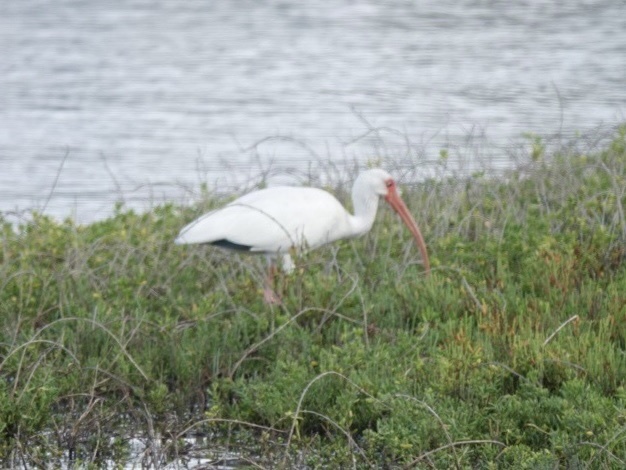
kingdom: Animalia
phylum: Chordata
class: Aves
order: Pelecaniformes
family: Threskiornithidae
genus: Eudocimus
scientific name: Eudocimus albus
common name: White ibis
